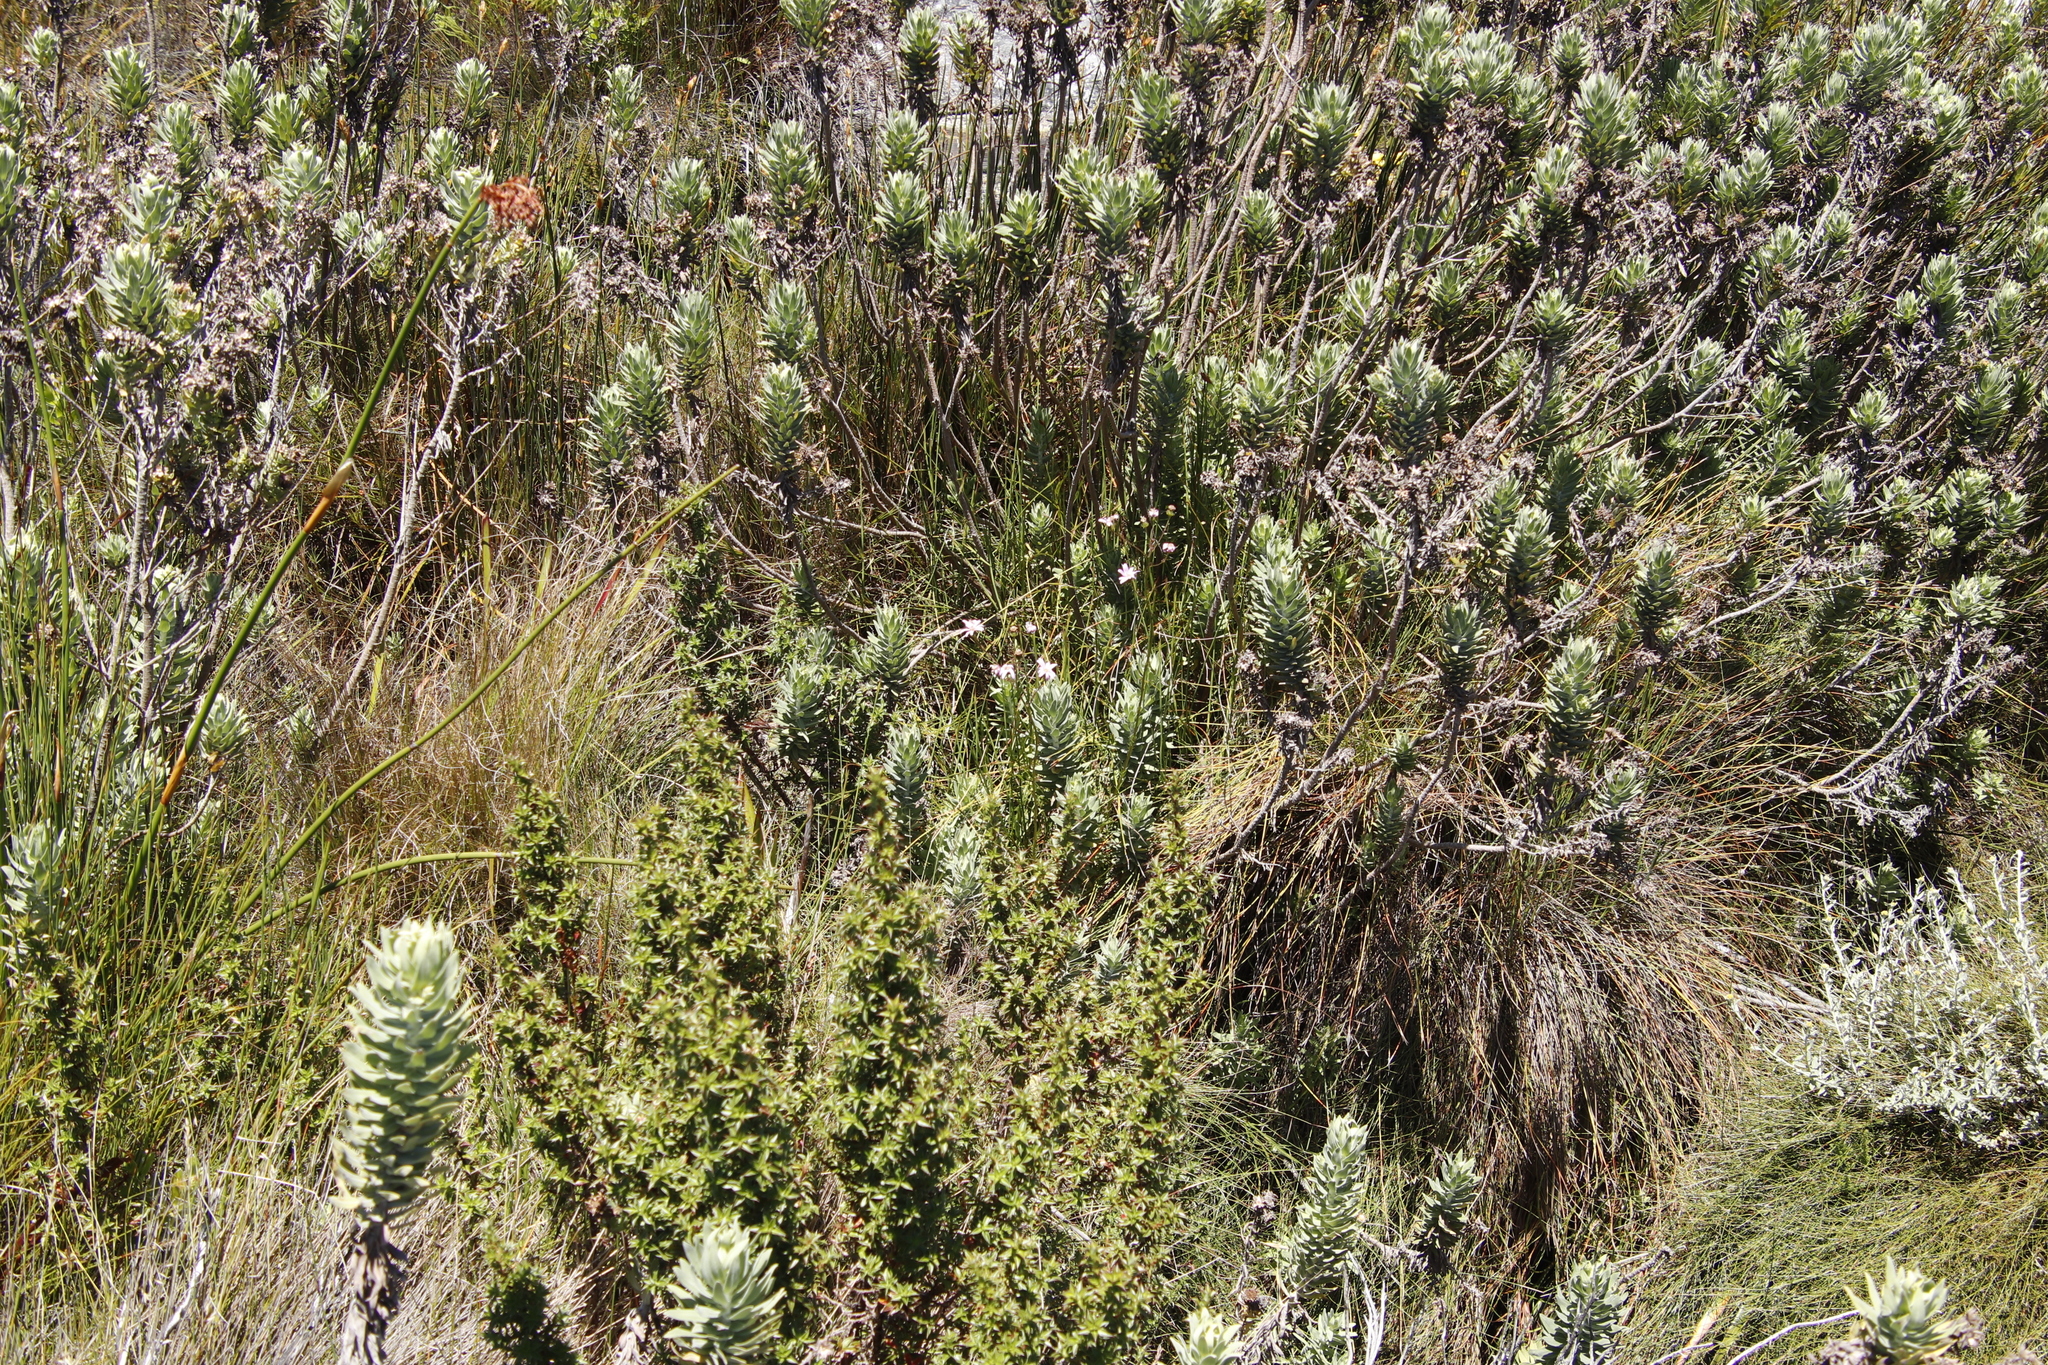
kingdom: Plantae
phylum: Tracheophyta
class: Magnoliopsida
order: Asterales
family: Asteraceae
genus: Osmitopsis
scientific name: Osmitopsis asteriscoides
